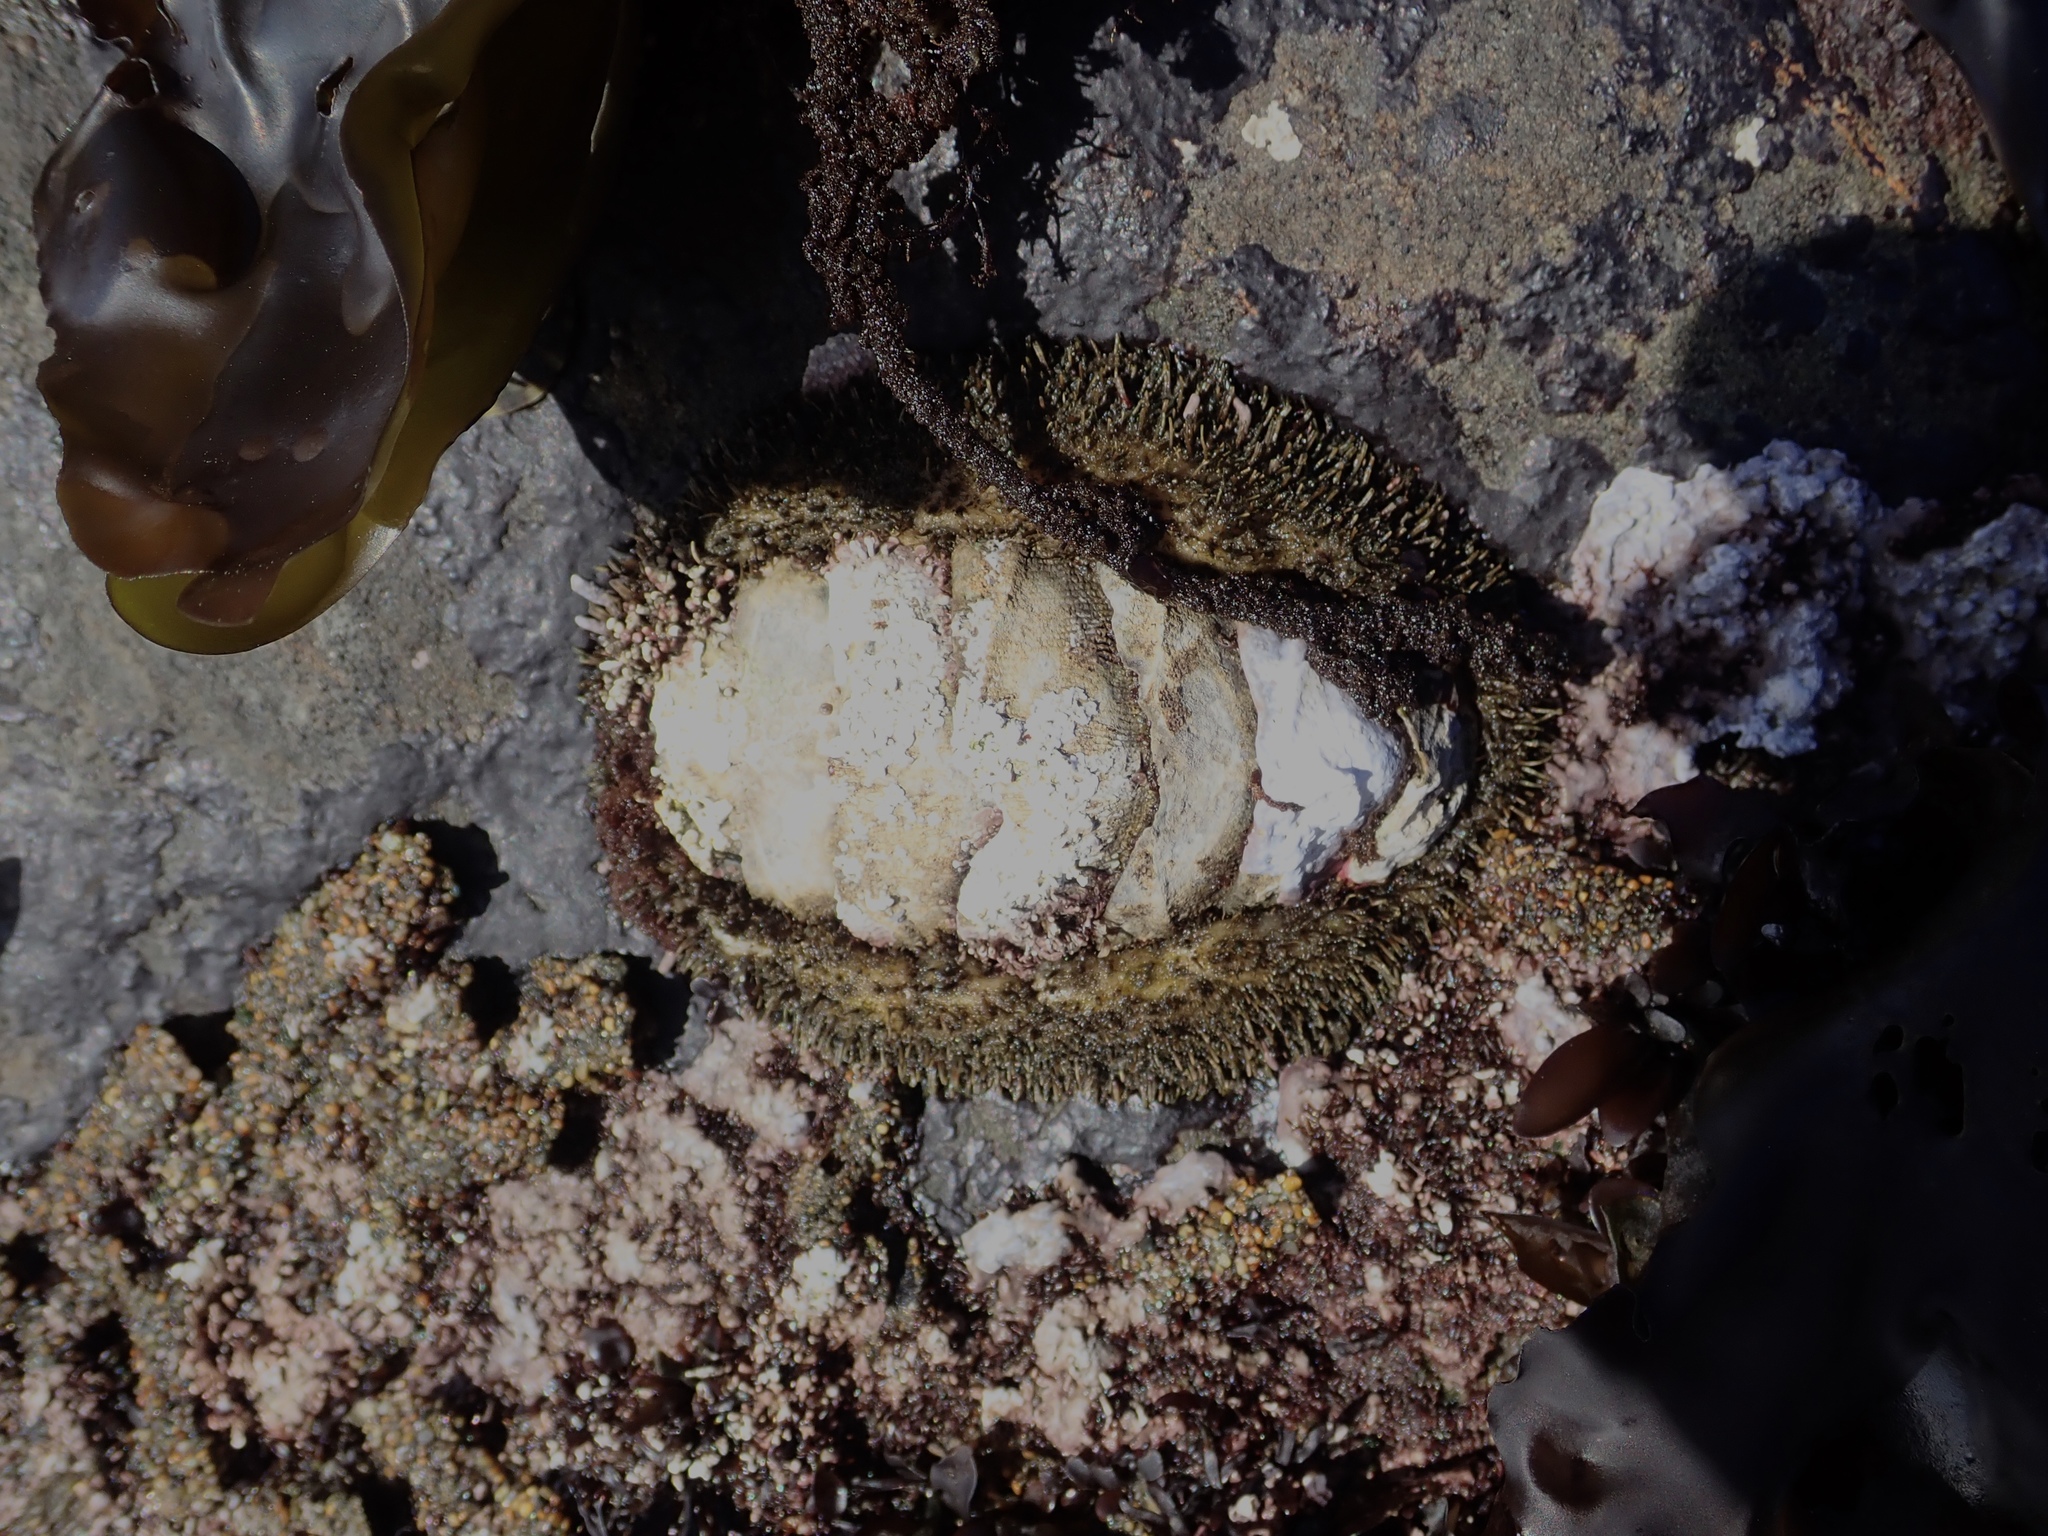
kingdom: Animalia
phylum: Mollusca
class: Polyplacophora
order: Chitonida
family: Mopaliidae
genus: Mopalia
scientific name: Mopalia muscosa
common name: Mossy chiton
